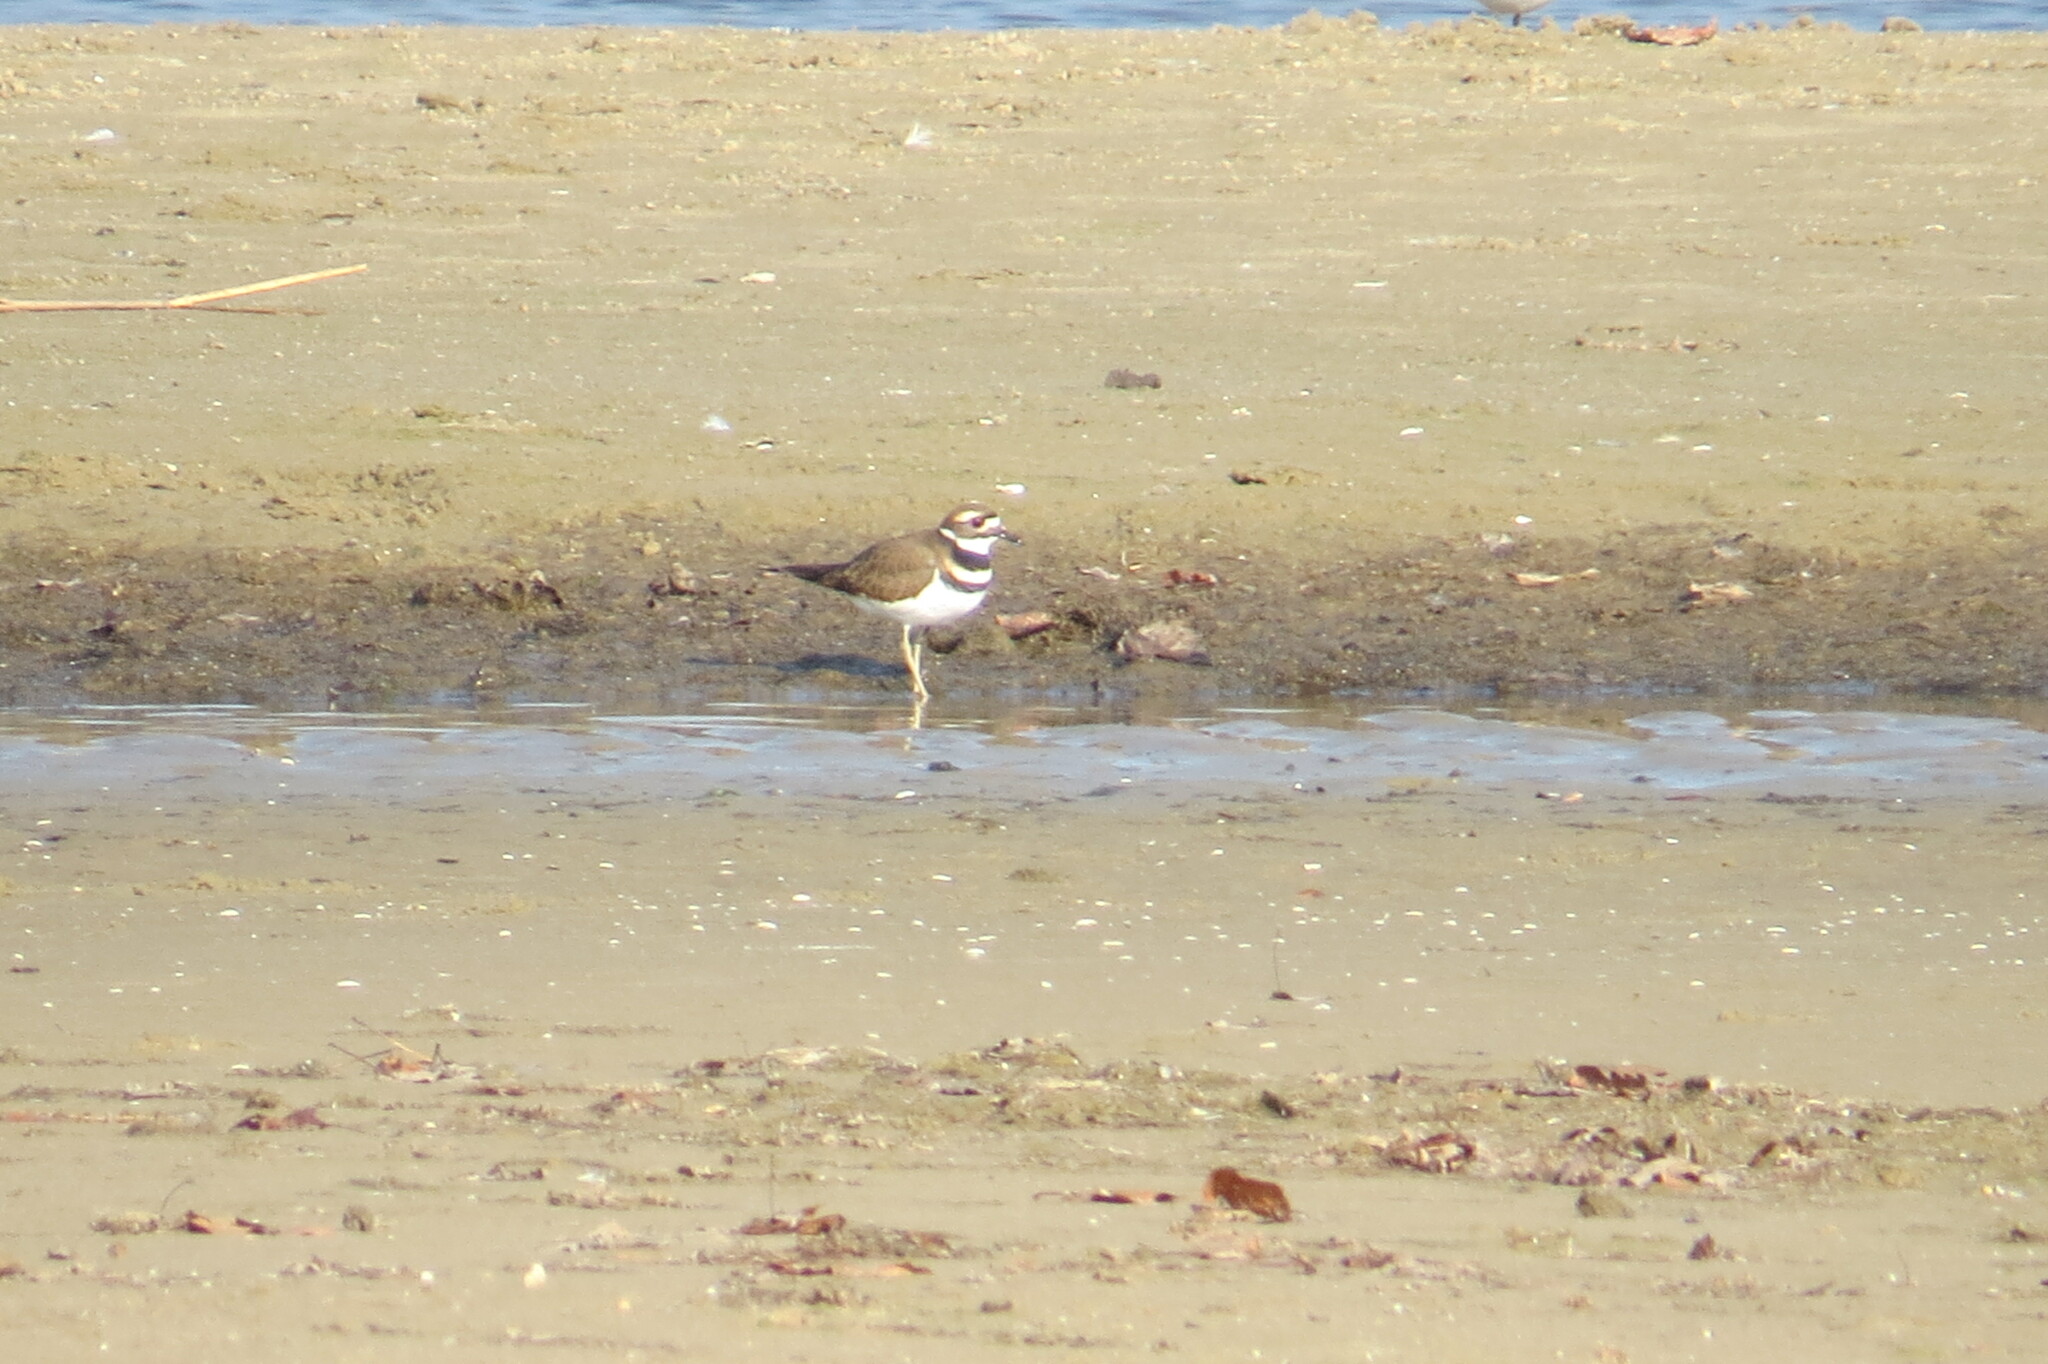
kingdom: Animalia
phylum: Chordata
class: Aves
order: Charadriiformes
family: Charadriidae
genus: Charadrius
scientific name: Charadrius vociferus
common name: Killdeer
